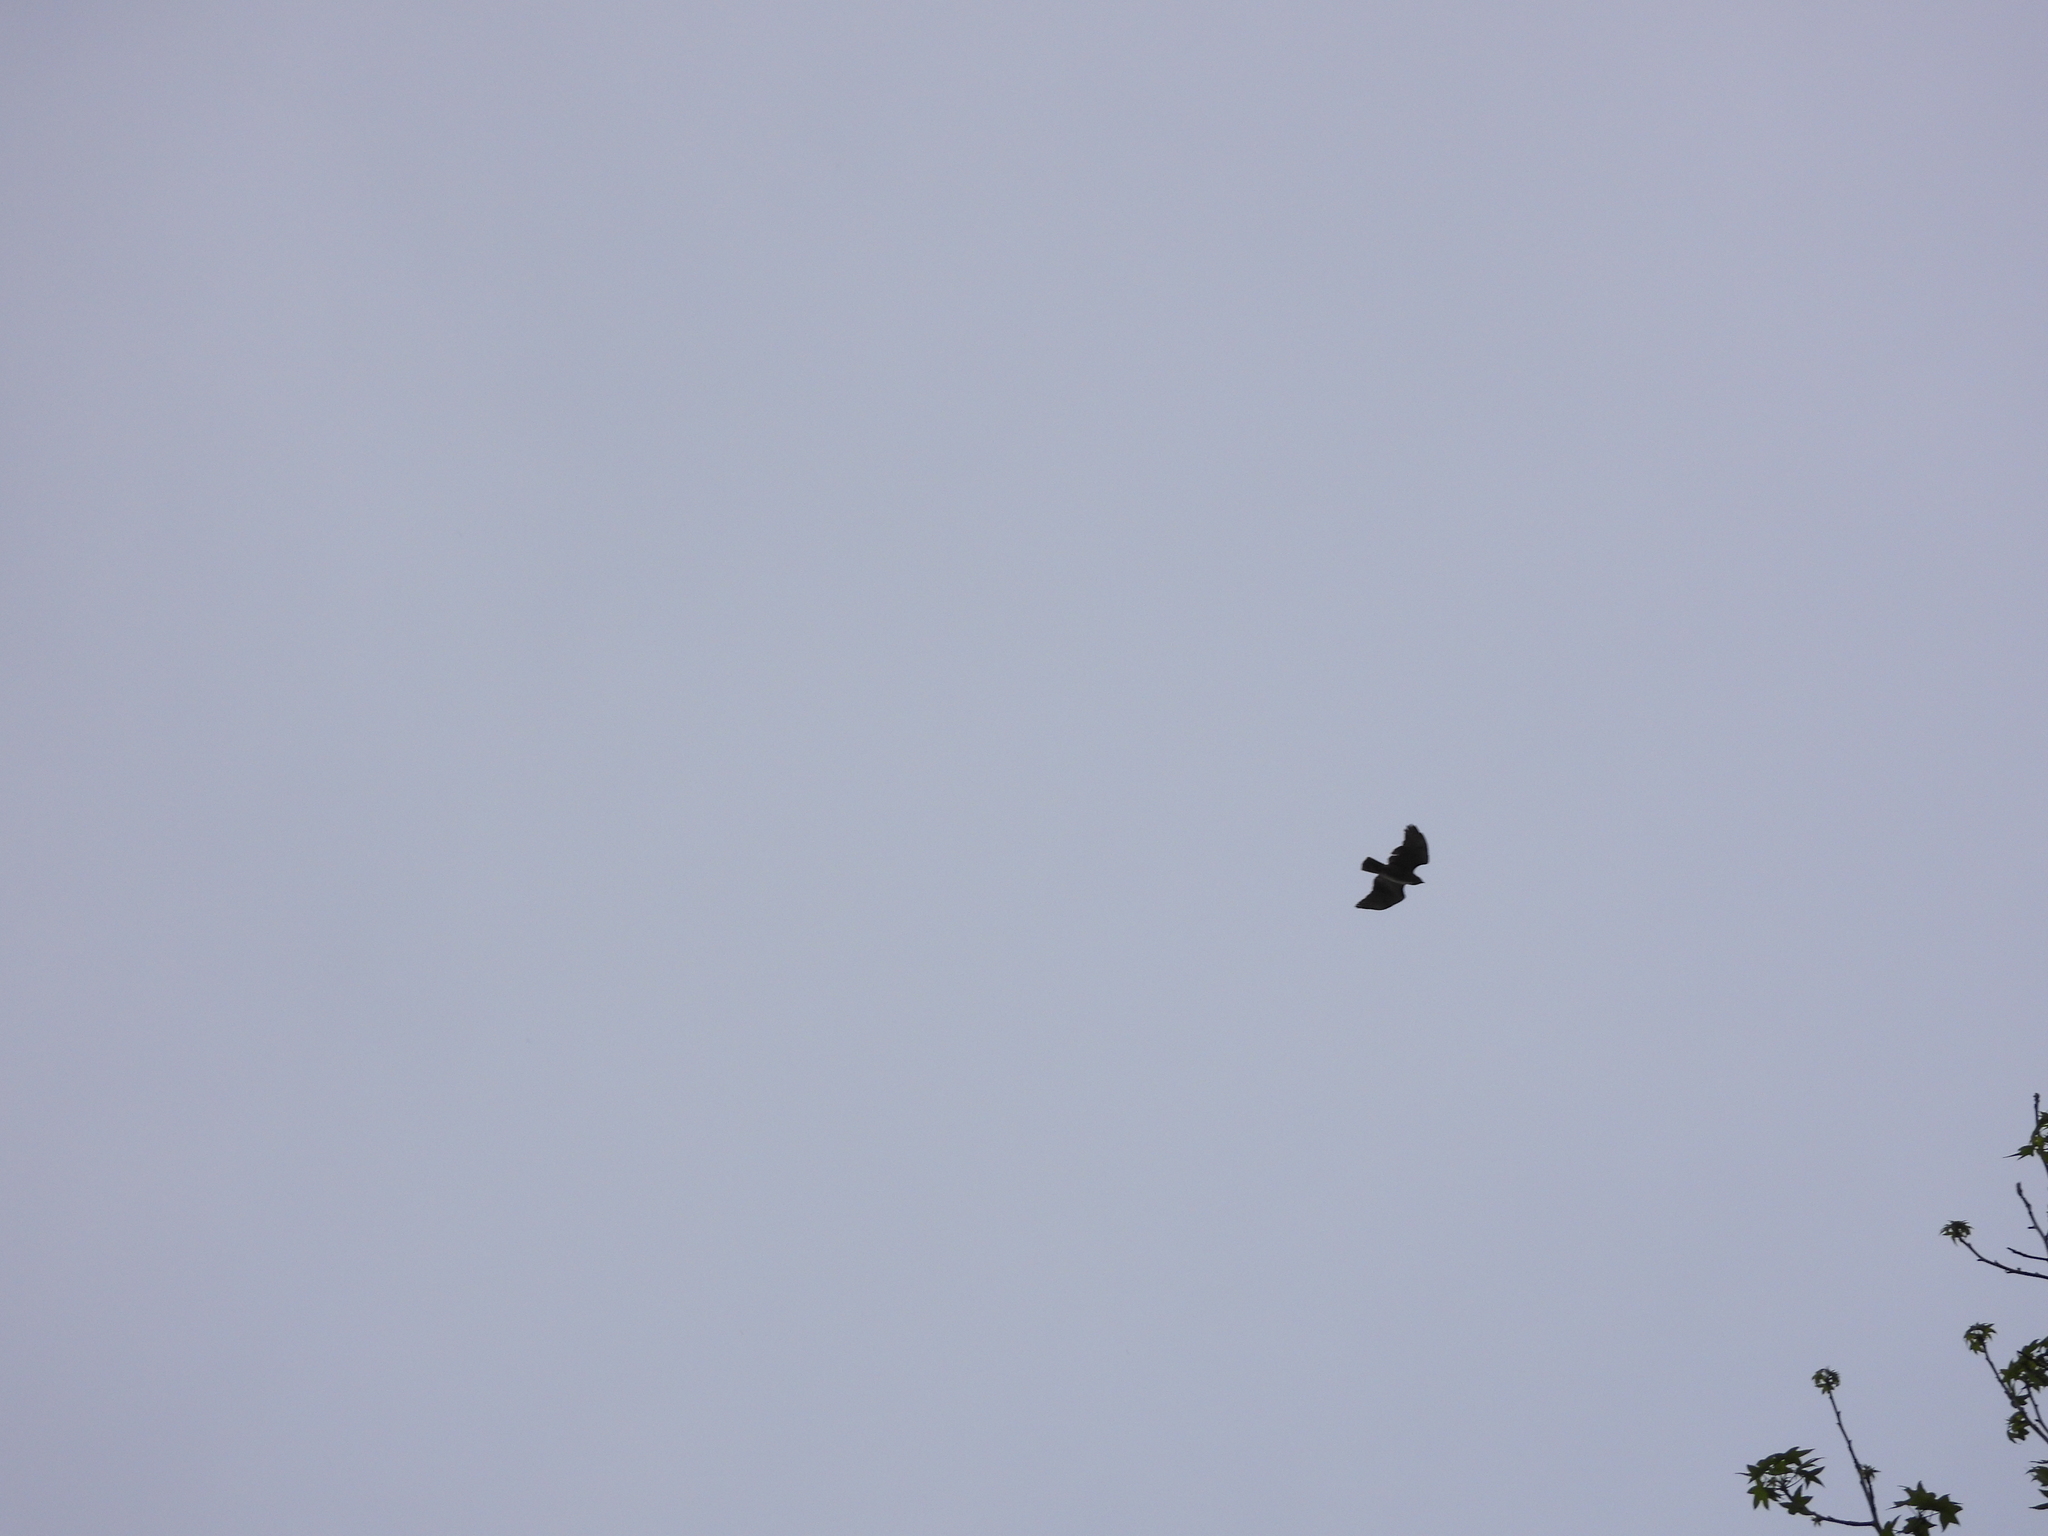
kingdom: Animalia
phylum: Chordata
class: Aves
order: Accipitriformes
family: Accipitridae
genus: Buteo
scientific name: Buteo jamaicensis
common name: Red-tailed hawk
